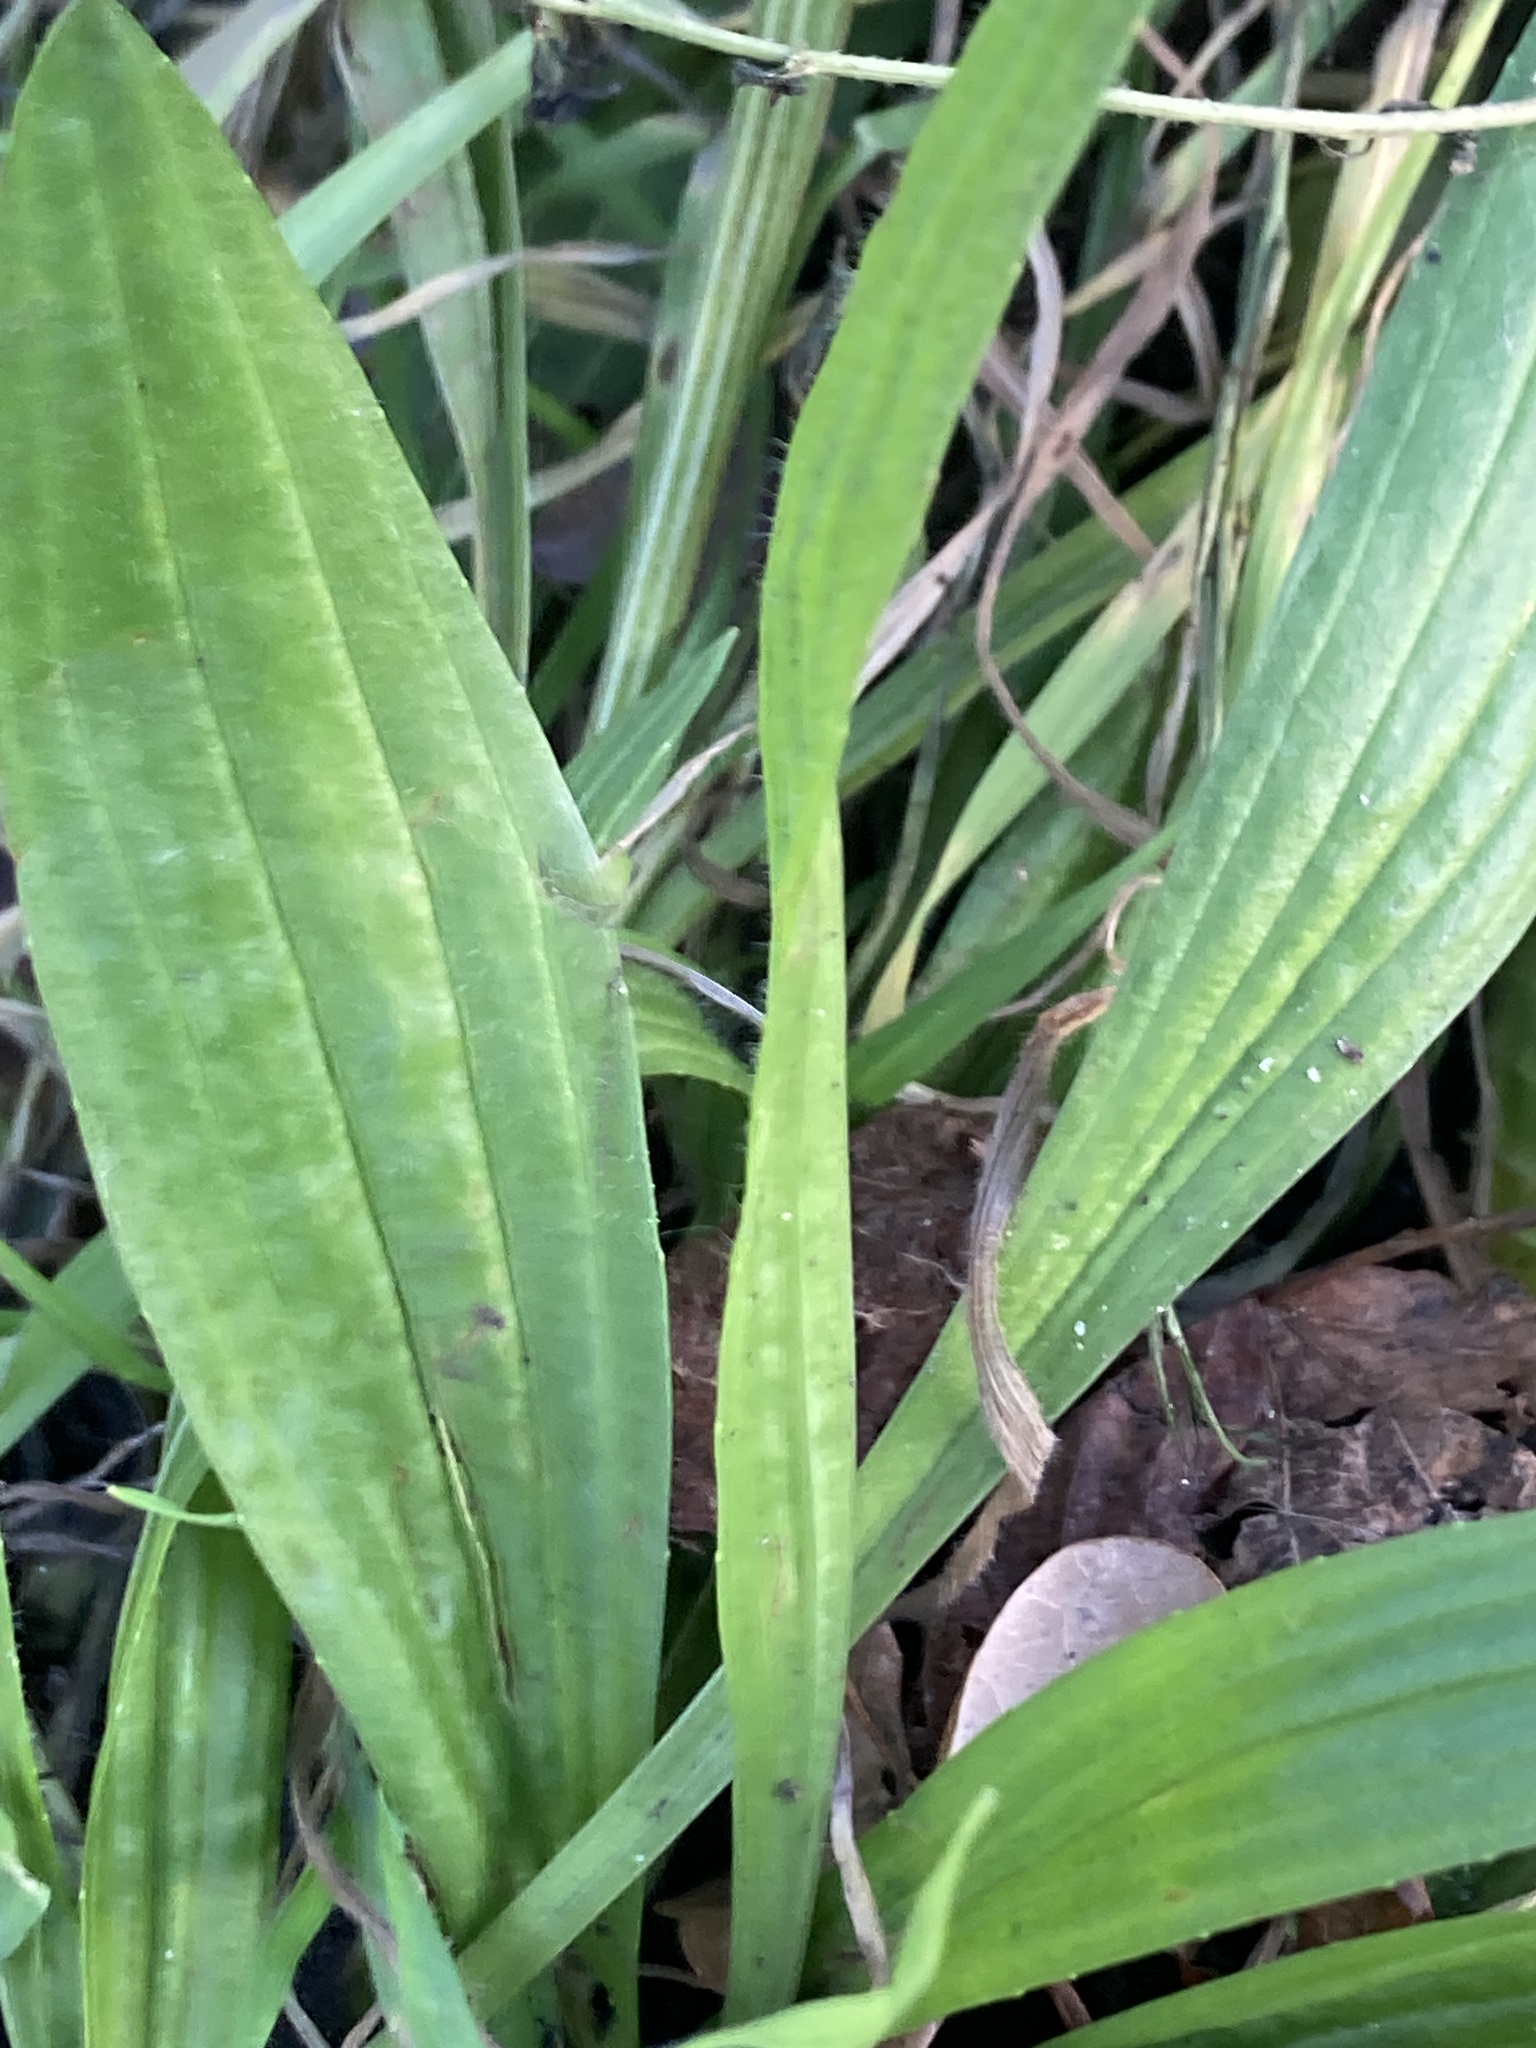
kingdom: Plantae
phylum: Tracheophyta
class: Magnoliopsida
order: Lamiales
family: Plantaginaceae
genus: Plantago
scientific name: Plantago lanceolata
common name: Ribwort plantain
